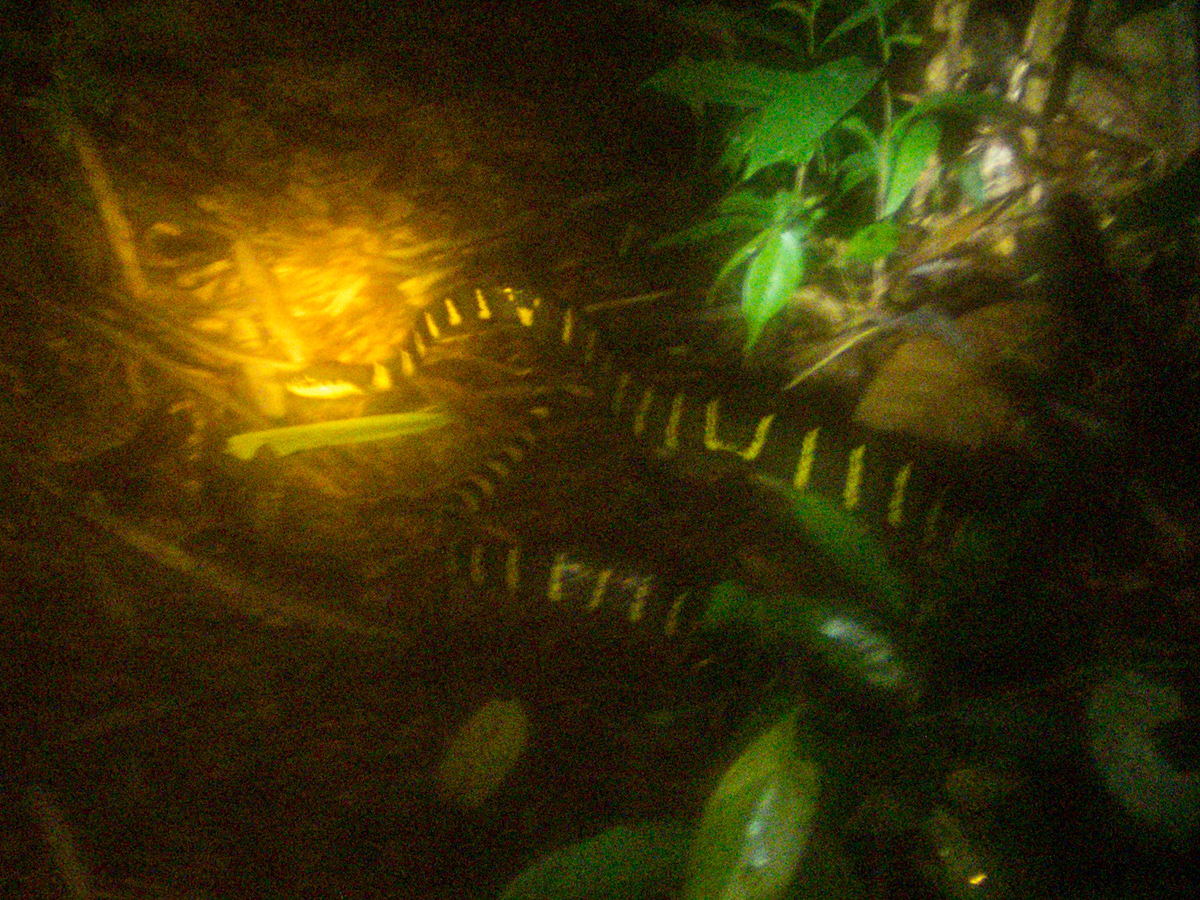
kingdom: Animalia
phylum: Chordata
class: Squamata
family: Colubridae
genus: Boiga
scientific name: Boiga melanota
